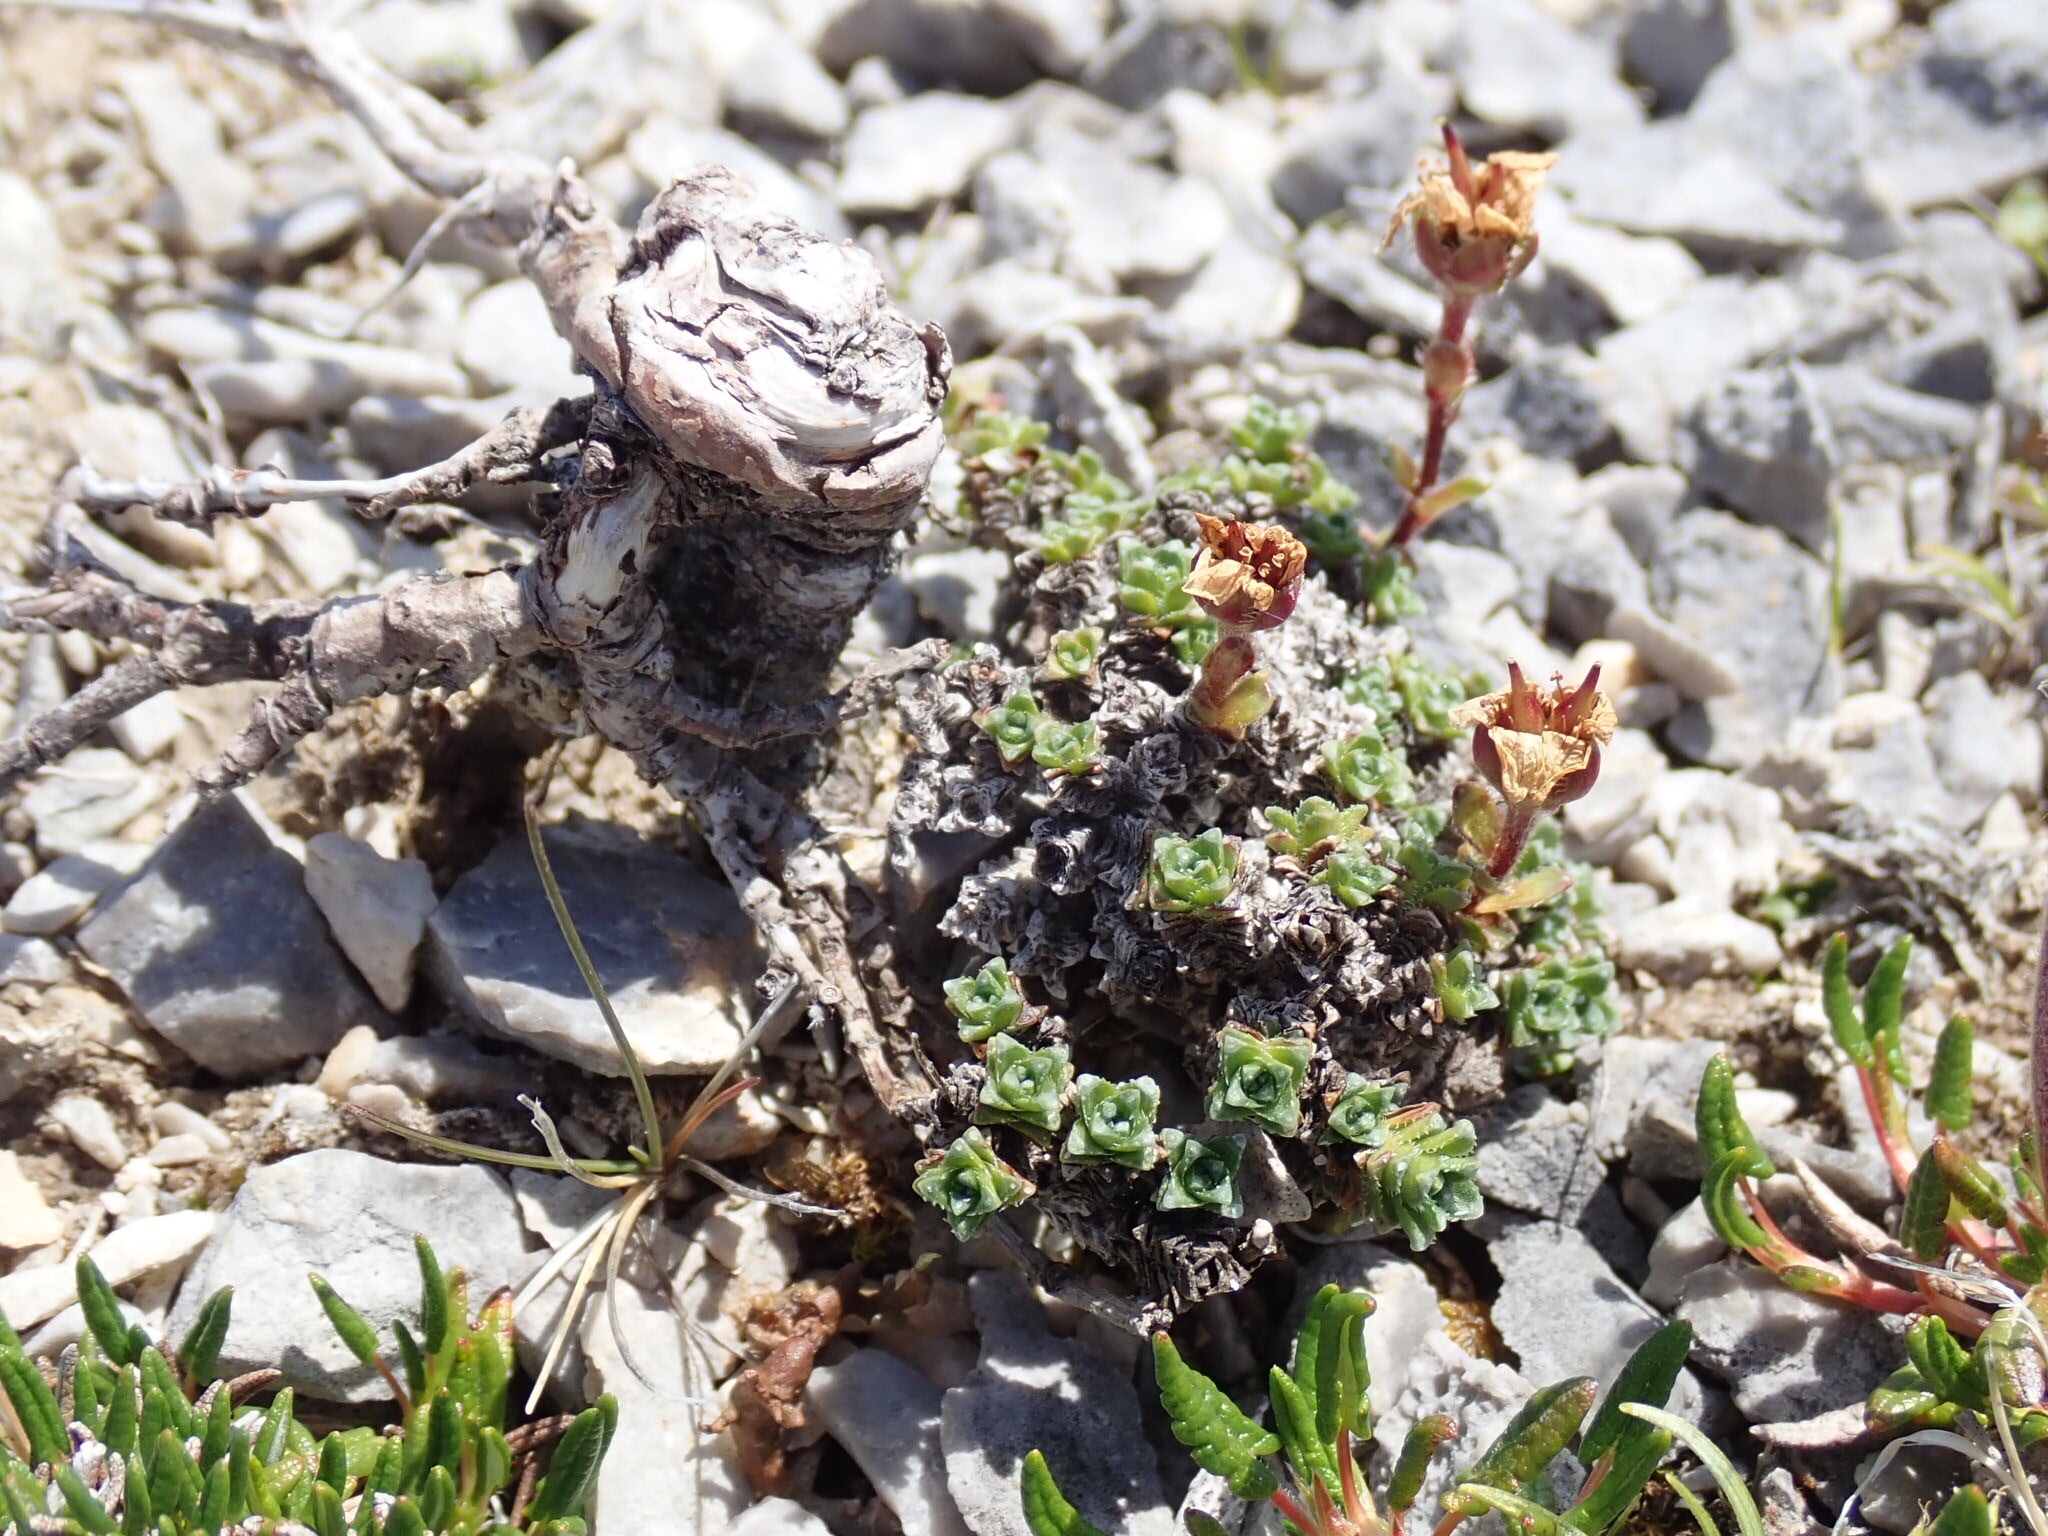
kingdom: Plantae
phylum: Tracheophyta
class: Magnoliopsida
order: Saxifragales
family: Saxifragaceae
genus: Saxifraga
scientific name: Saxifraga oppositifolia
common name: Purple saxifrage
